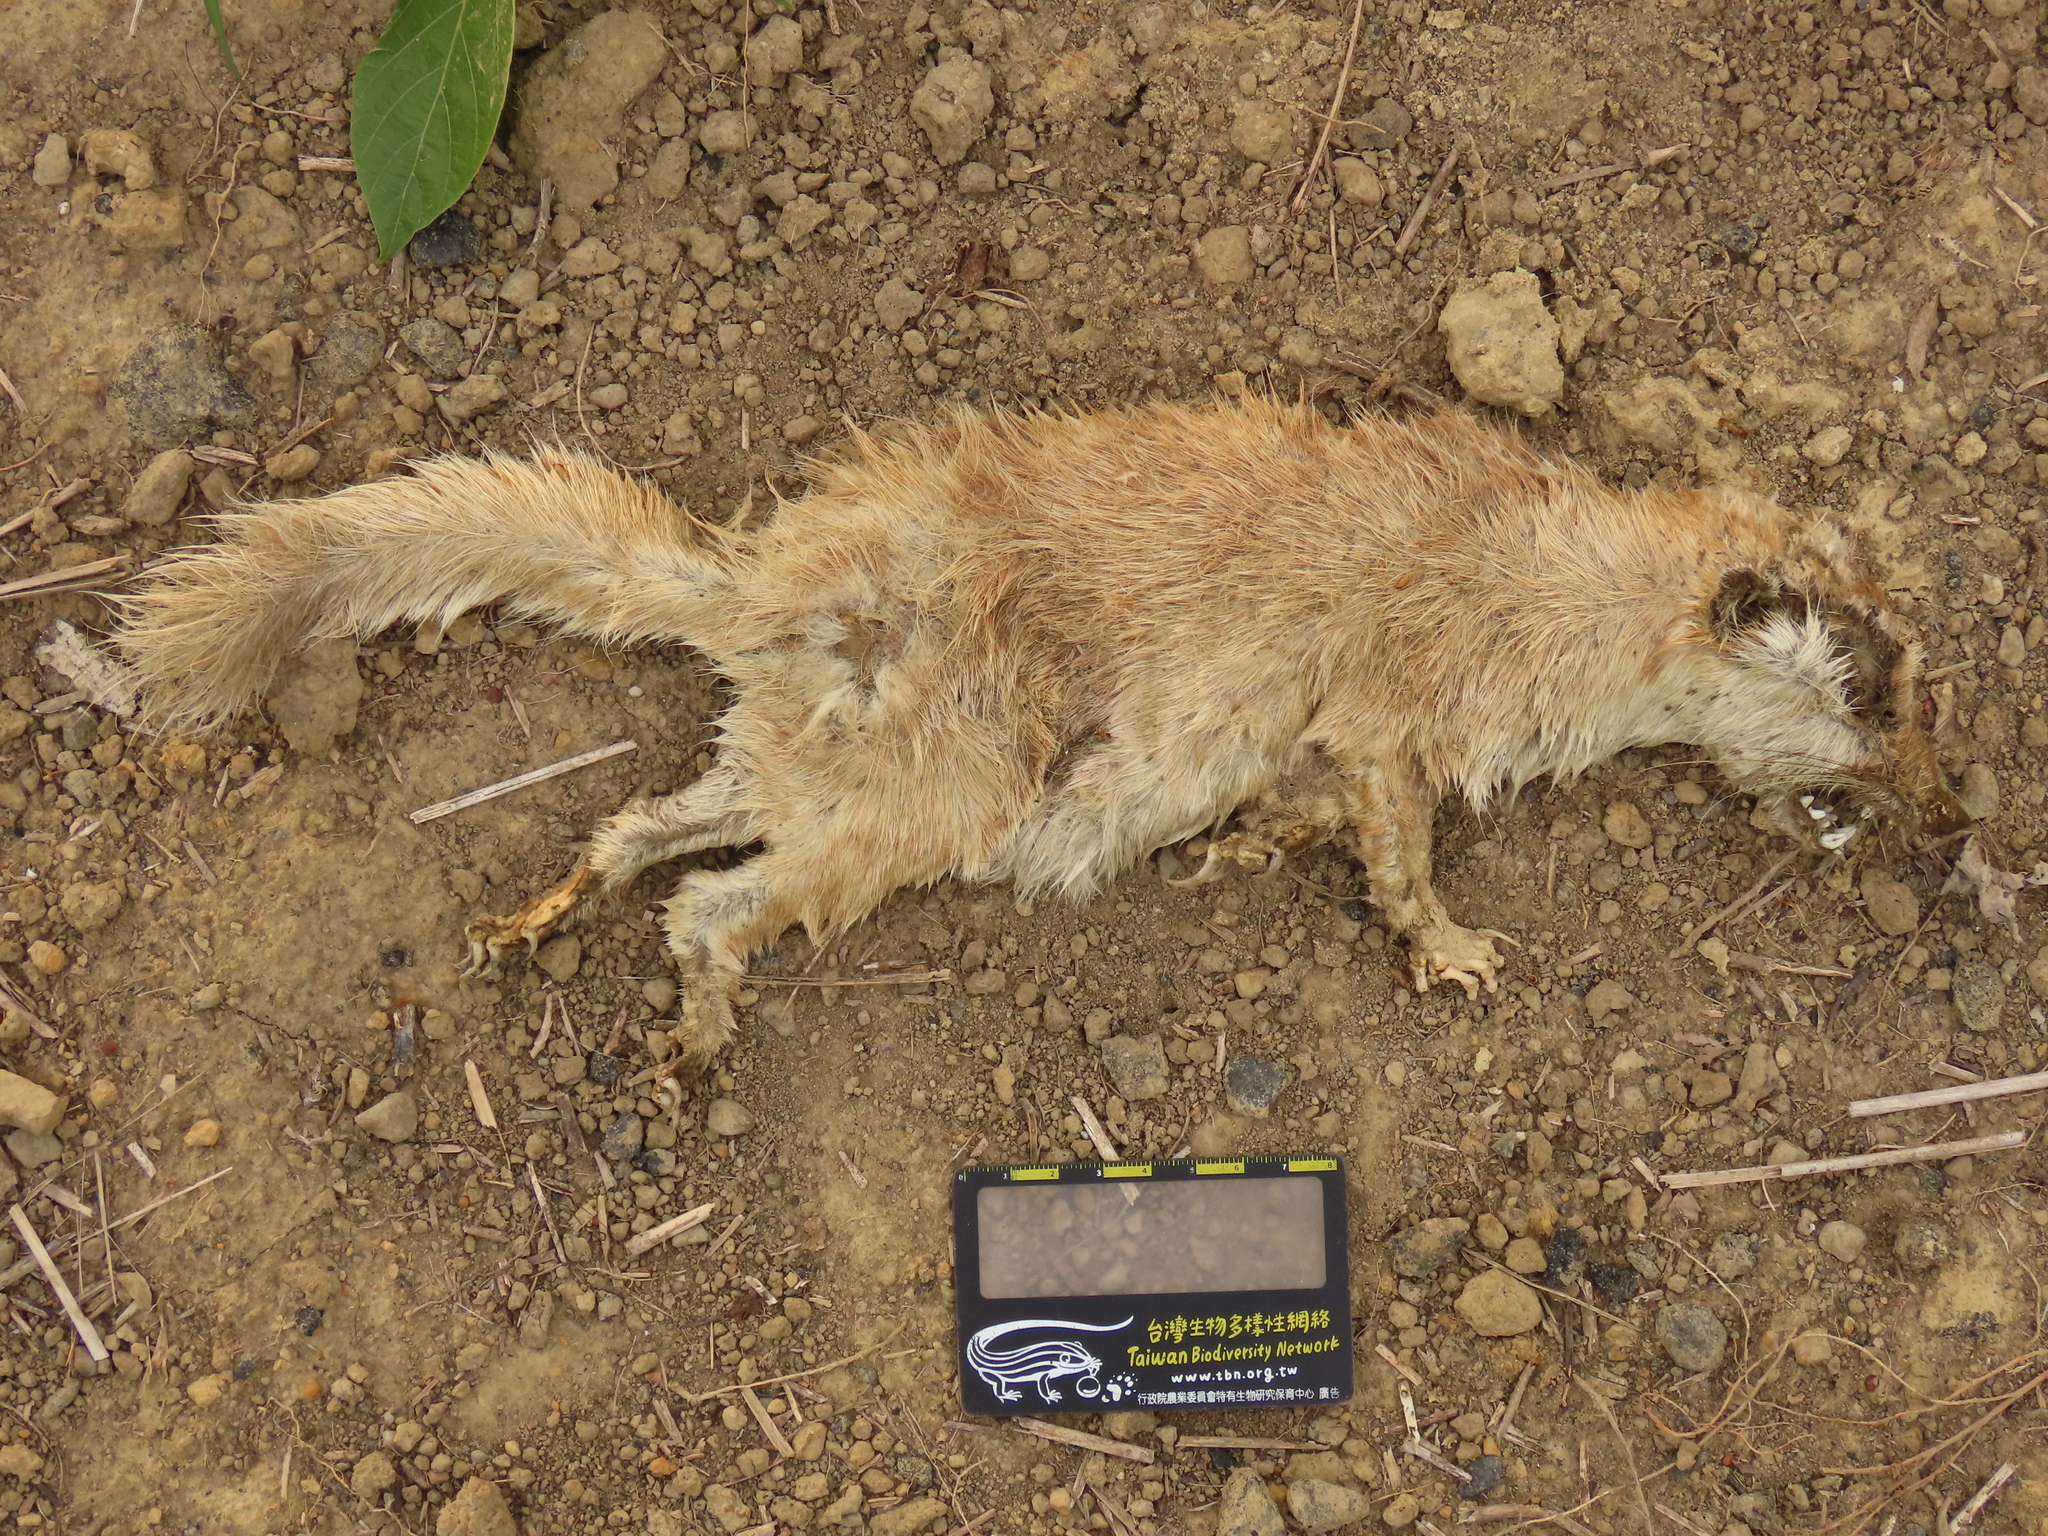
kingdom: Animalia
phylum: Chordata
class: Mammalia
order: Carnivora
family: Mustelidae
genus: Melogale
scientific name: Melogale
